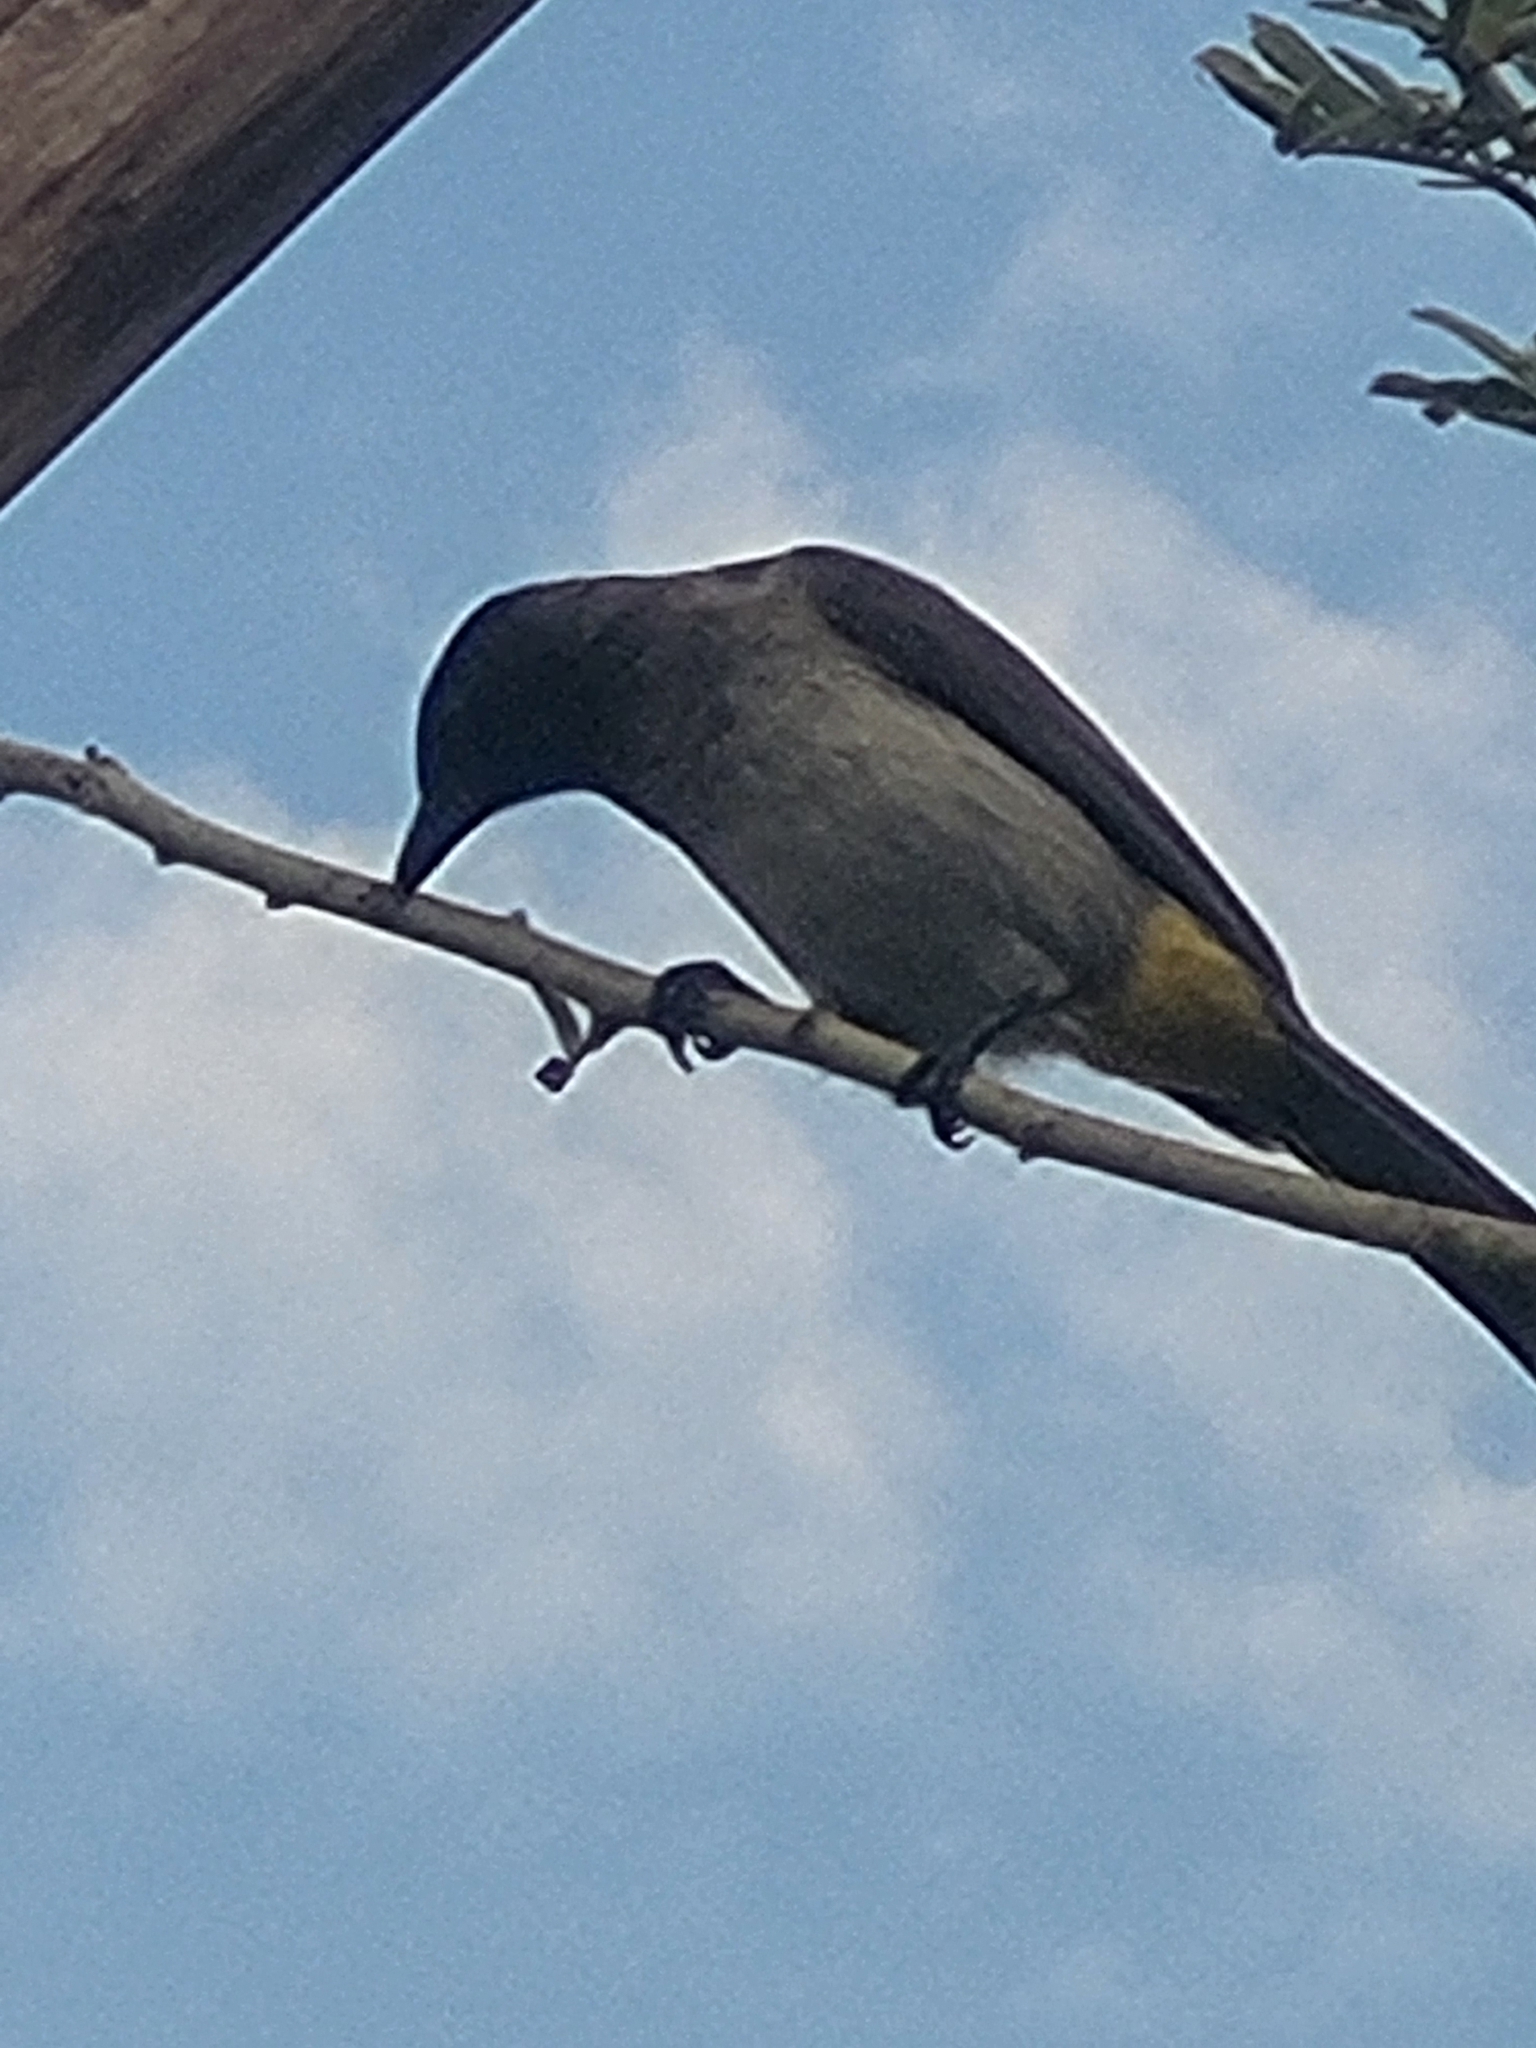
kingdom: Animalia
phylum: Chordata
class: Aves
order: Passeriformes
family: Pycnonotidae
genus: Pycnonotus
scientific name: Pycnonotus barbatus
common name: Common bulbul
